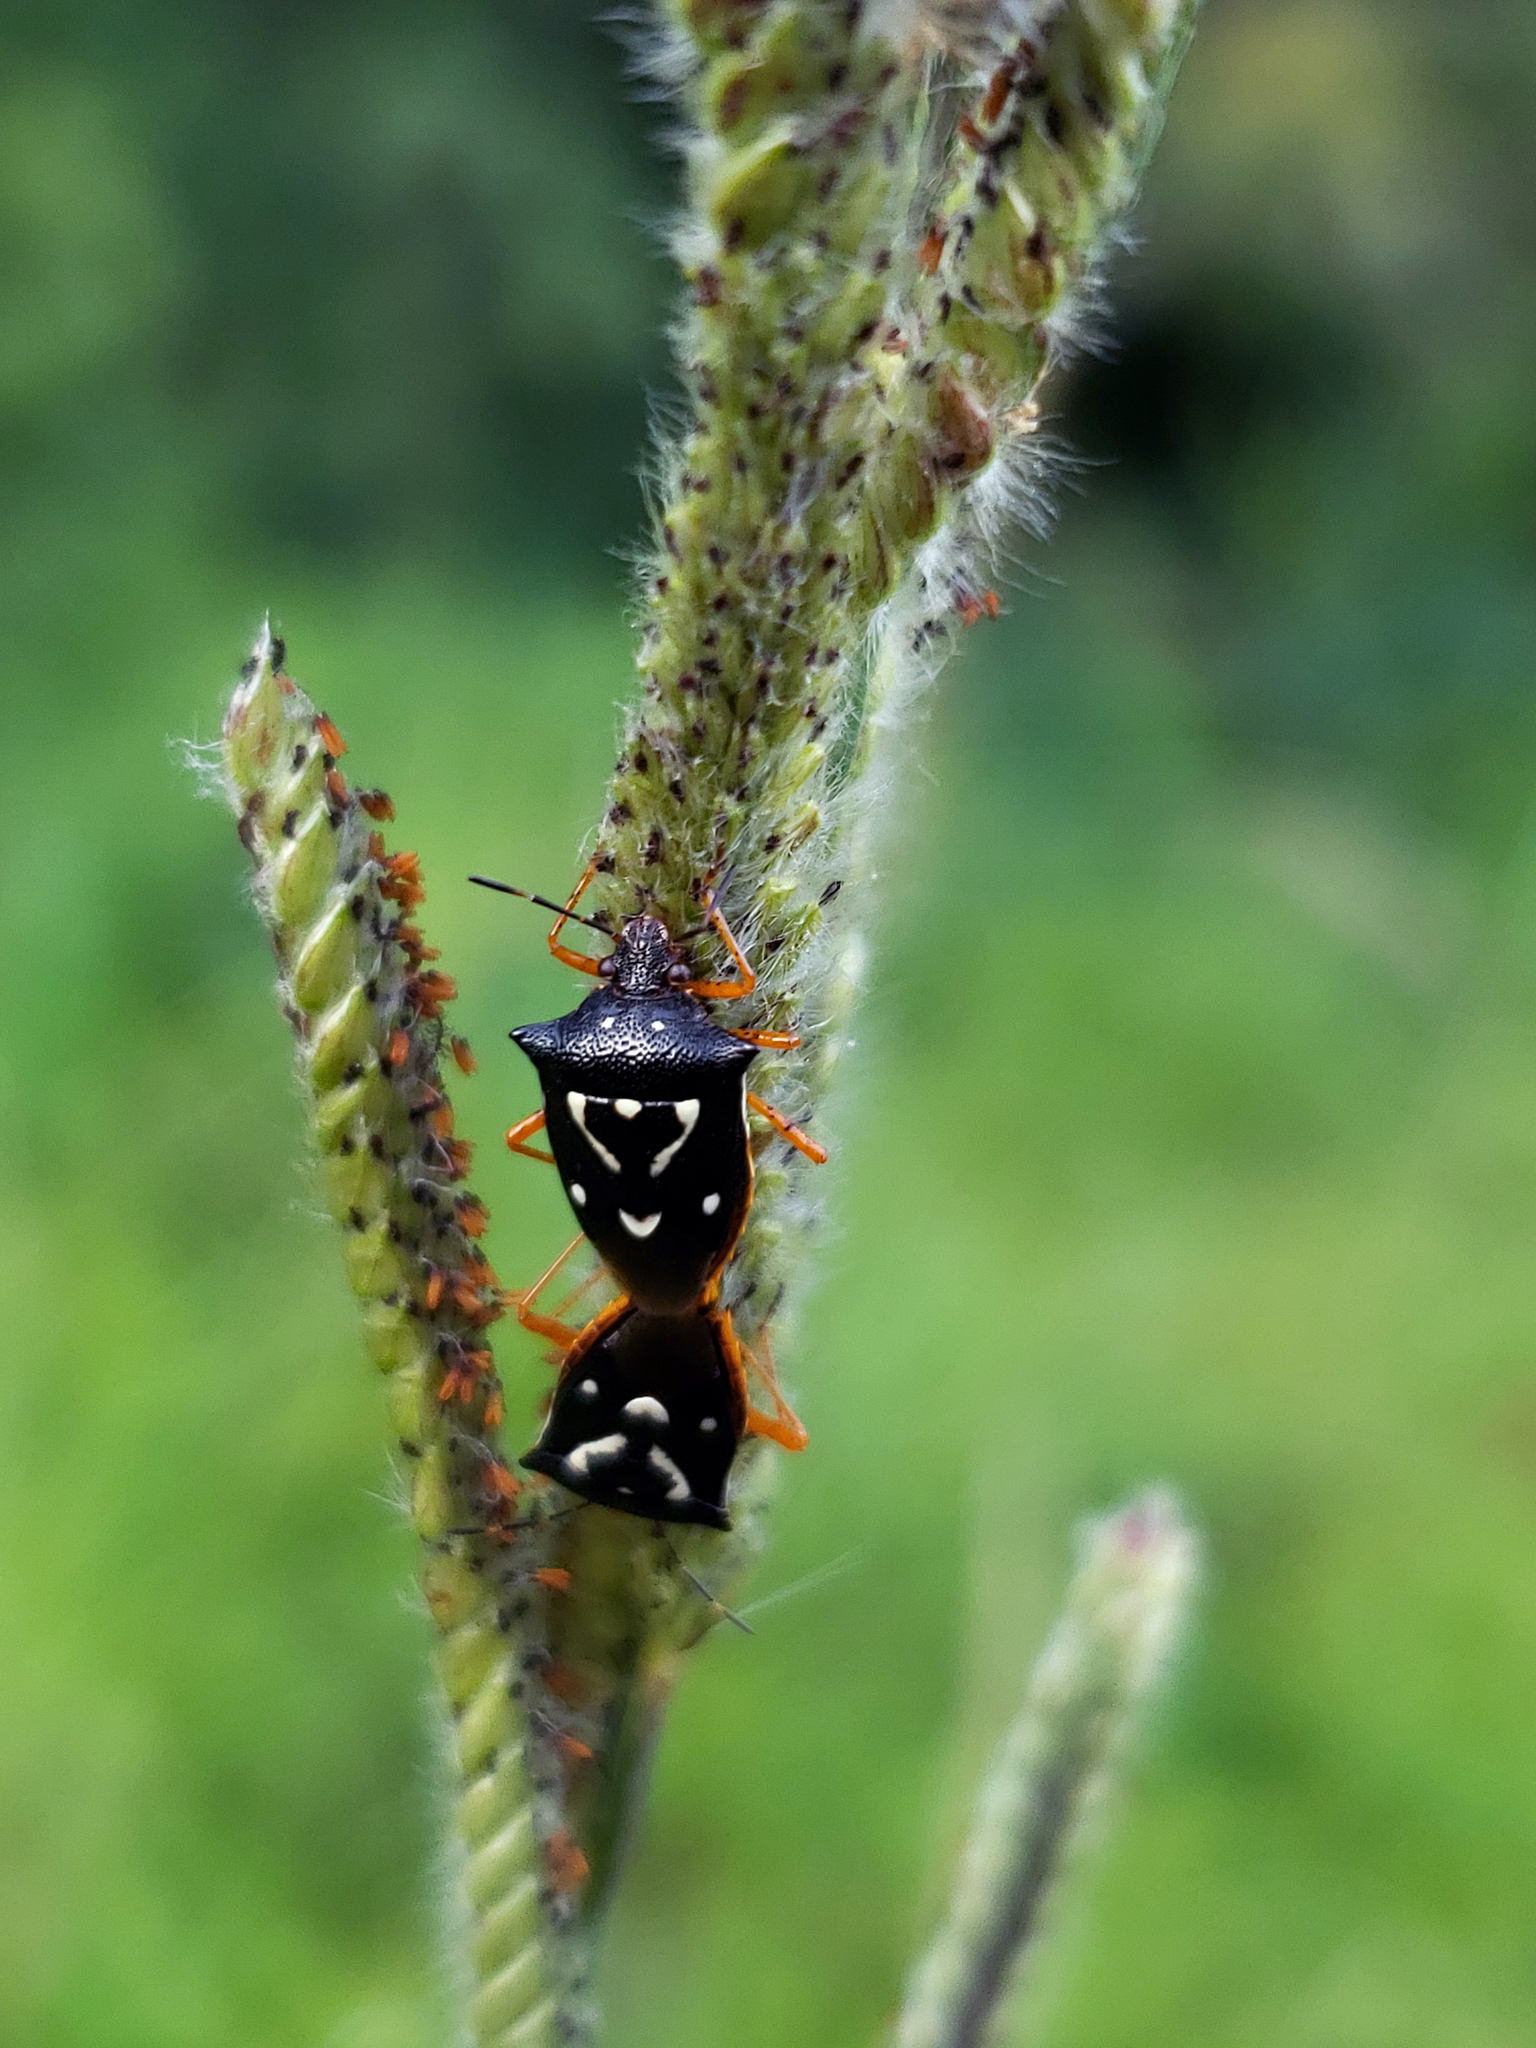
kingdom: Animalia
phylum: Arthropoda
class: Insecta
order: Hemiptera
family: Pentatomidae
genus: Mormidea
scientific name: Mormidea v-luteum
